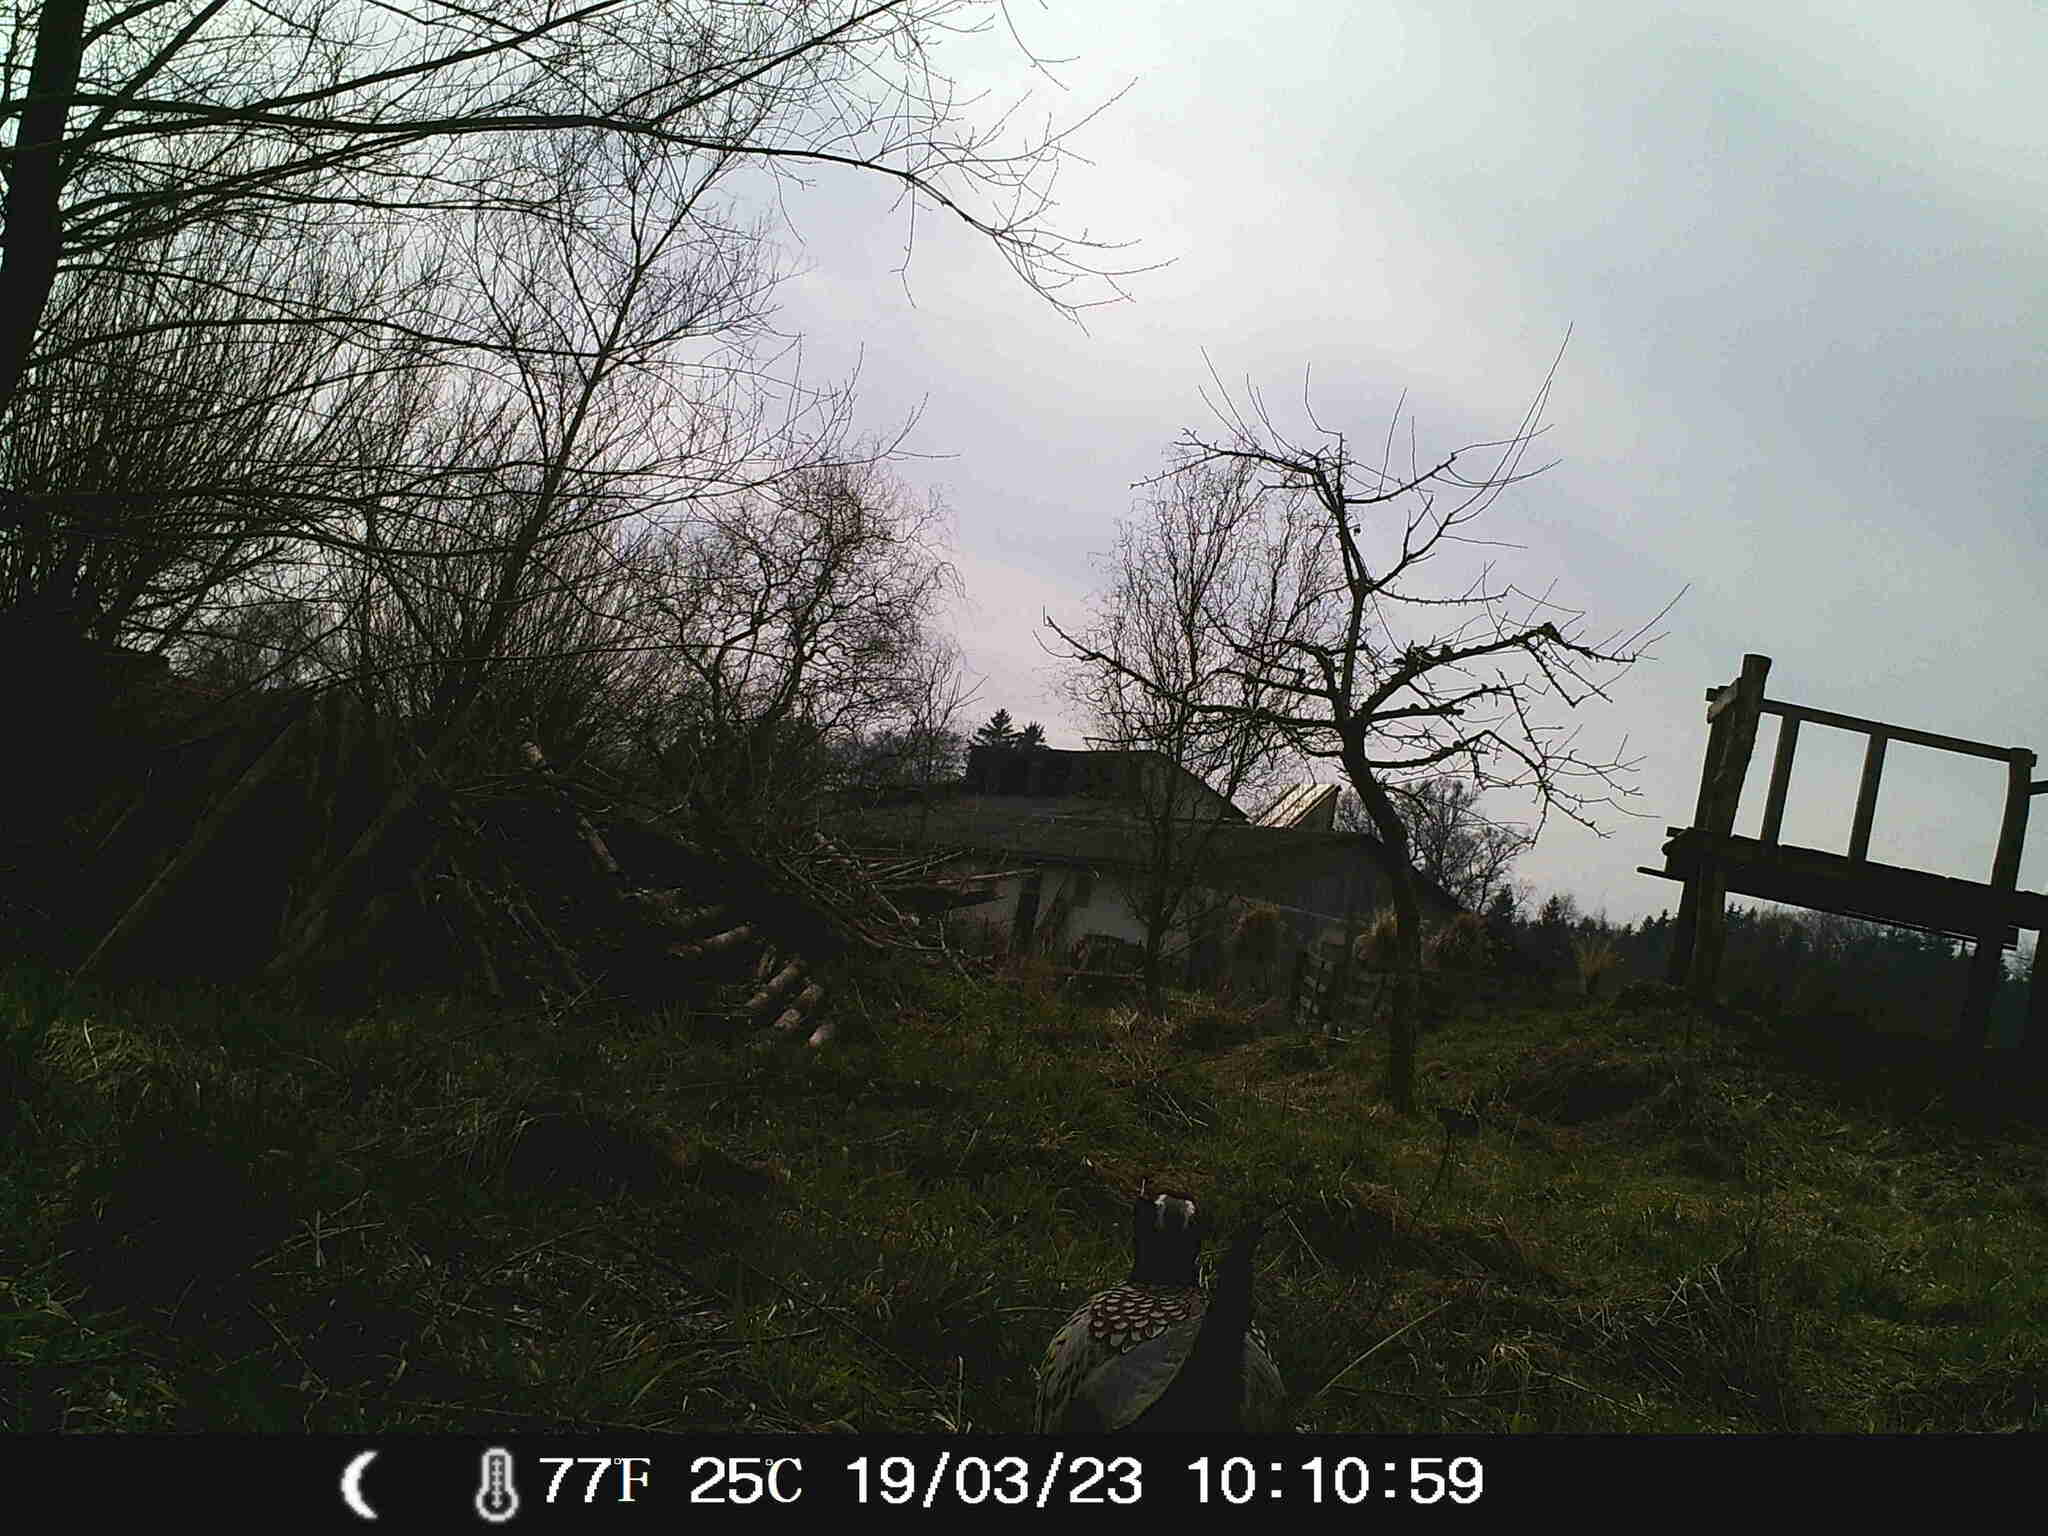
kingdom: Animalia
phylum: Chordata
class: Aves
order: Galliformes
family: Phasianidae
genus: Phasianus
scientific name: Phasianus colchicus
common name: Common pheasant
